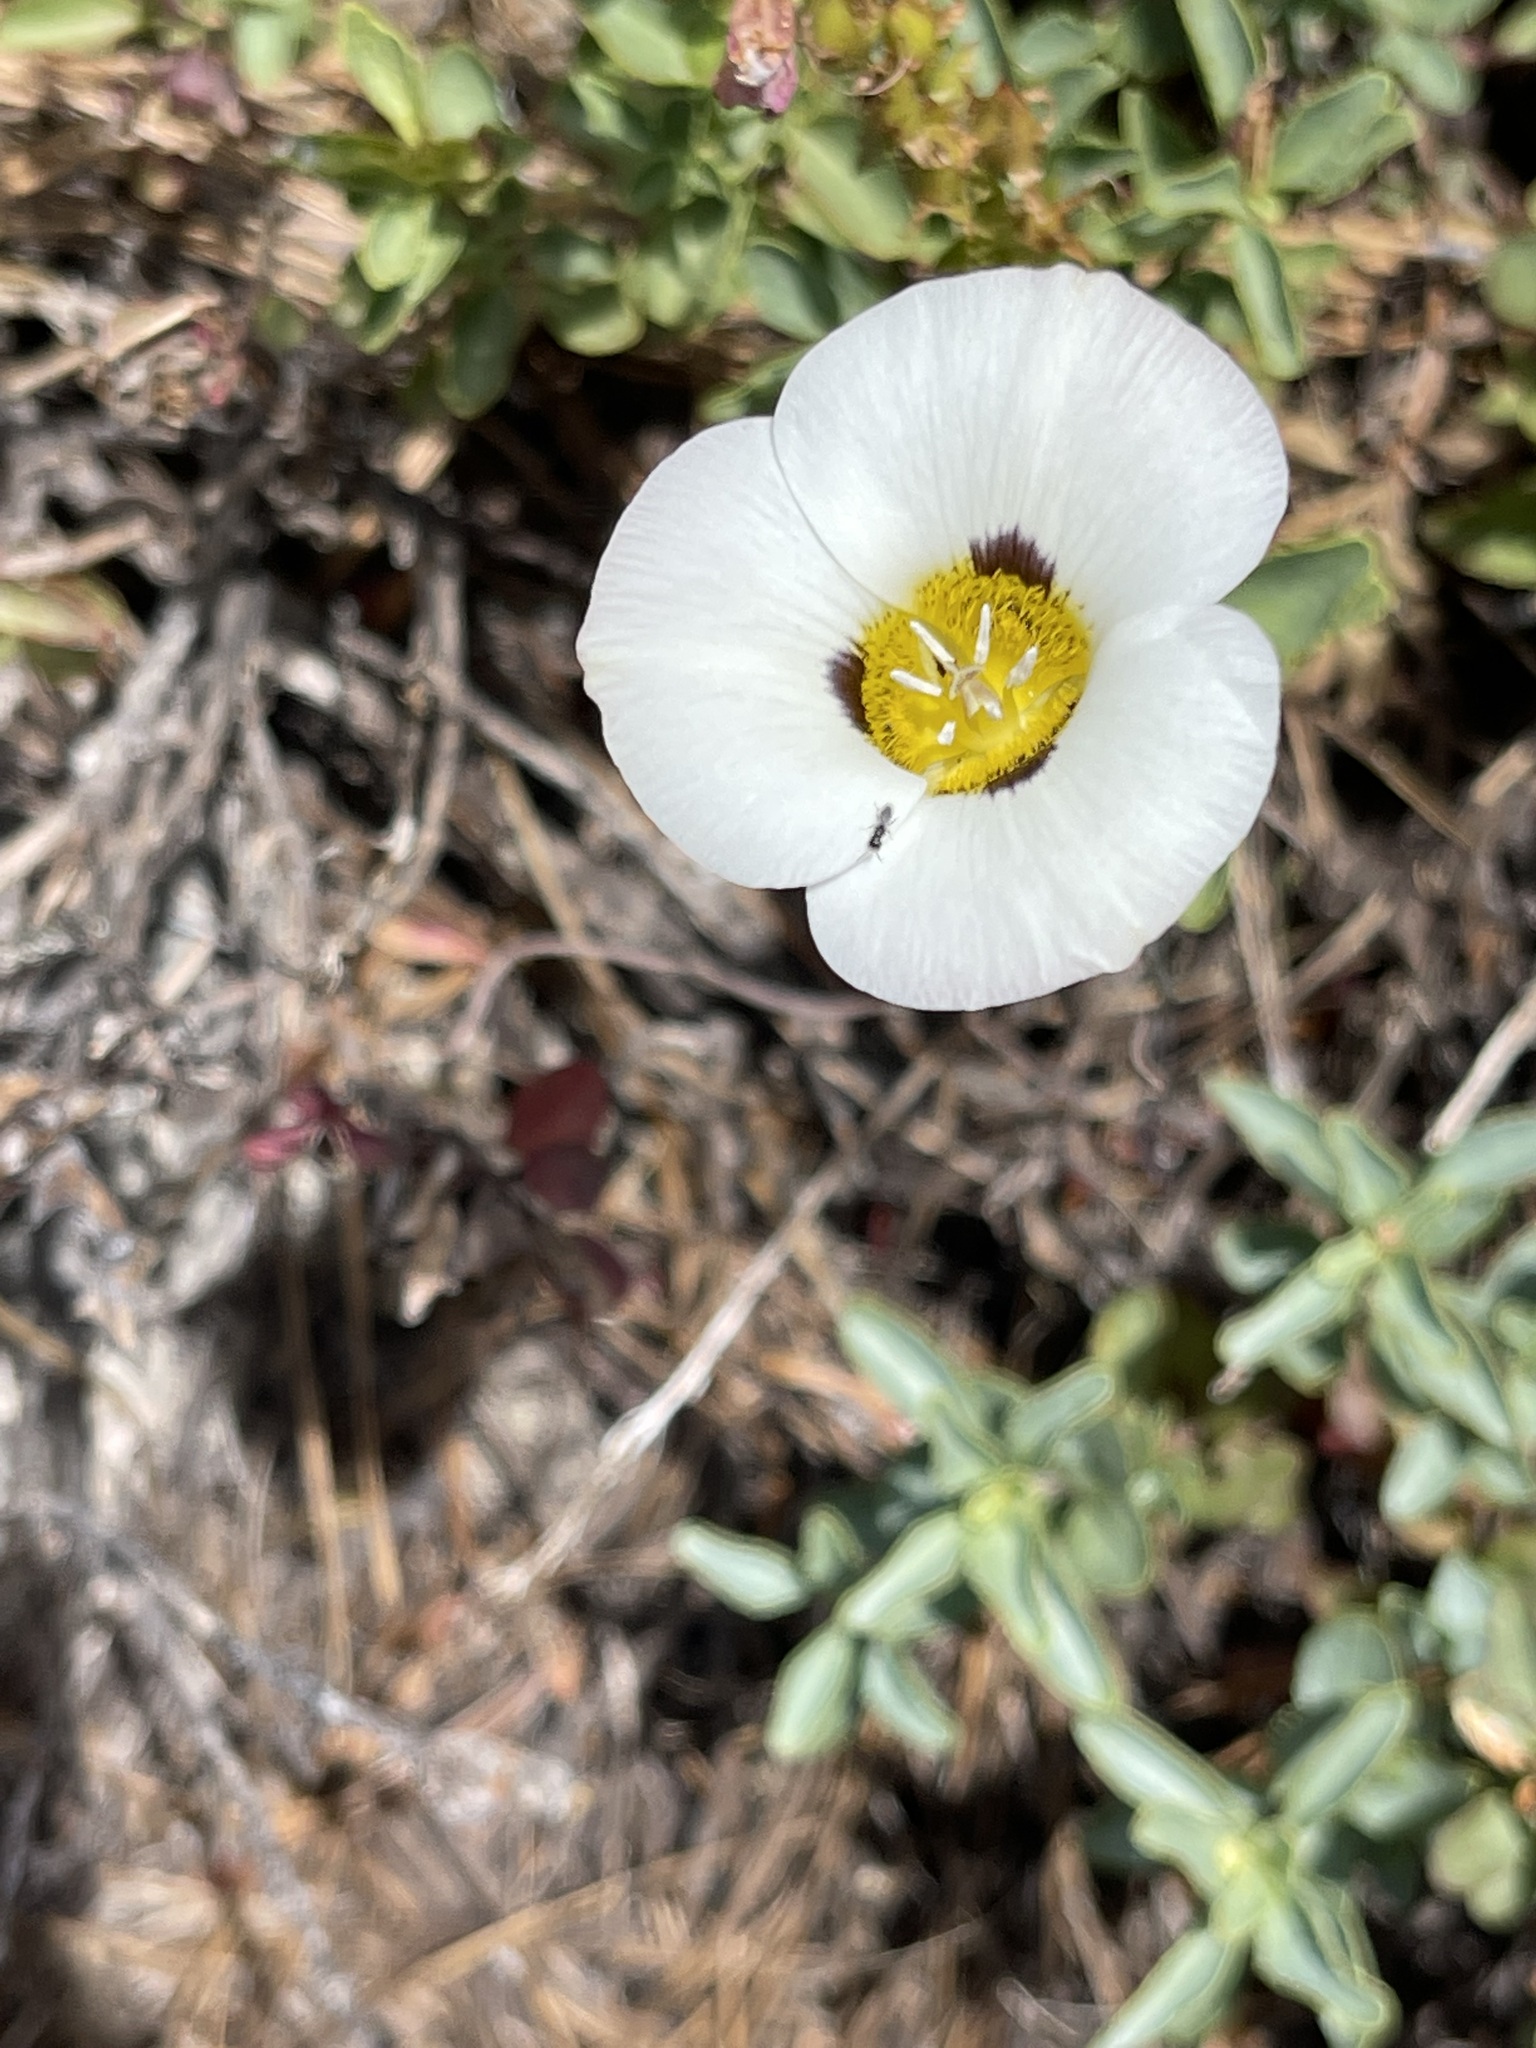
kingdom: Plantae
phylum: Tracheophyta
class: Liliopsida
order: Liliales
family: Liliaceae
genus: Calochortus
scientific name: Calochortus leichtlinii
